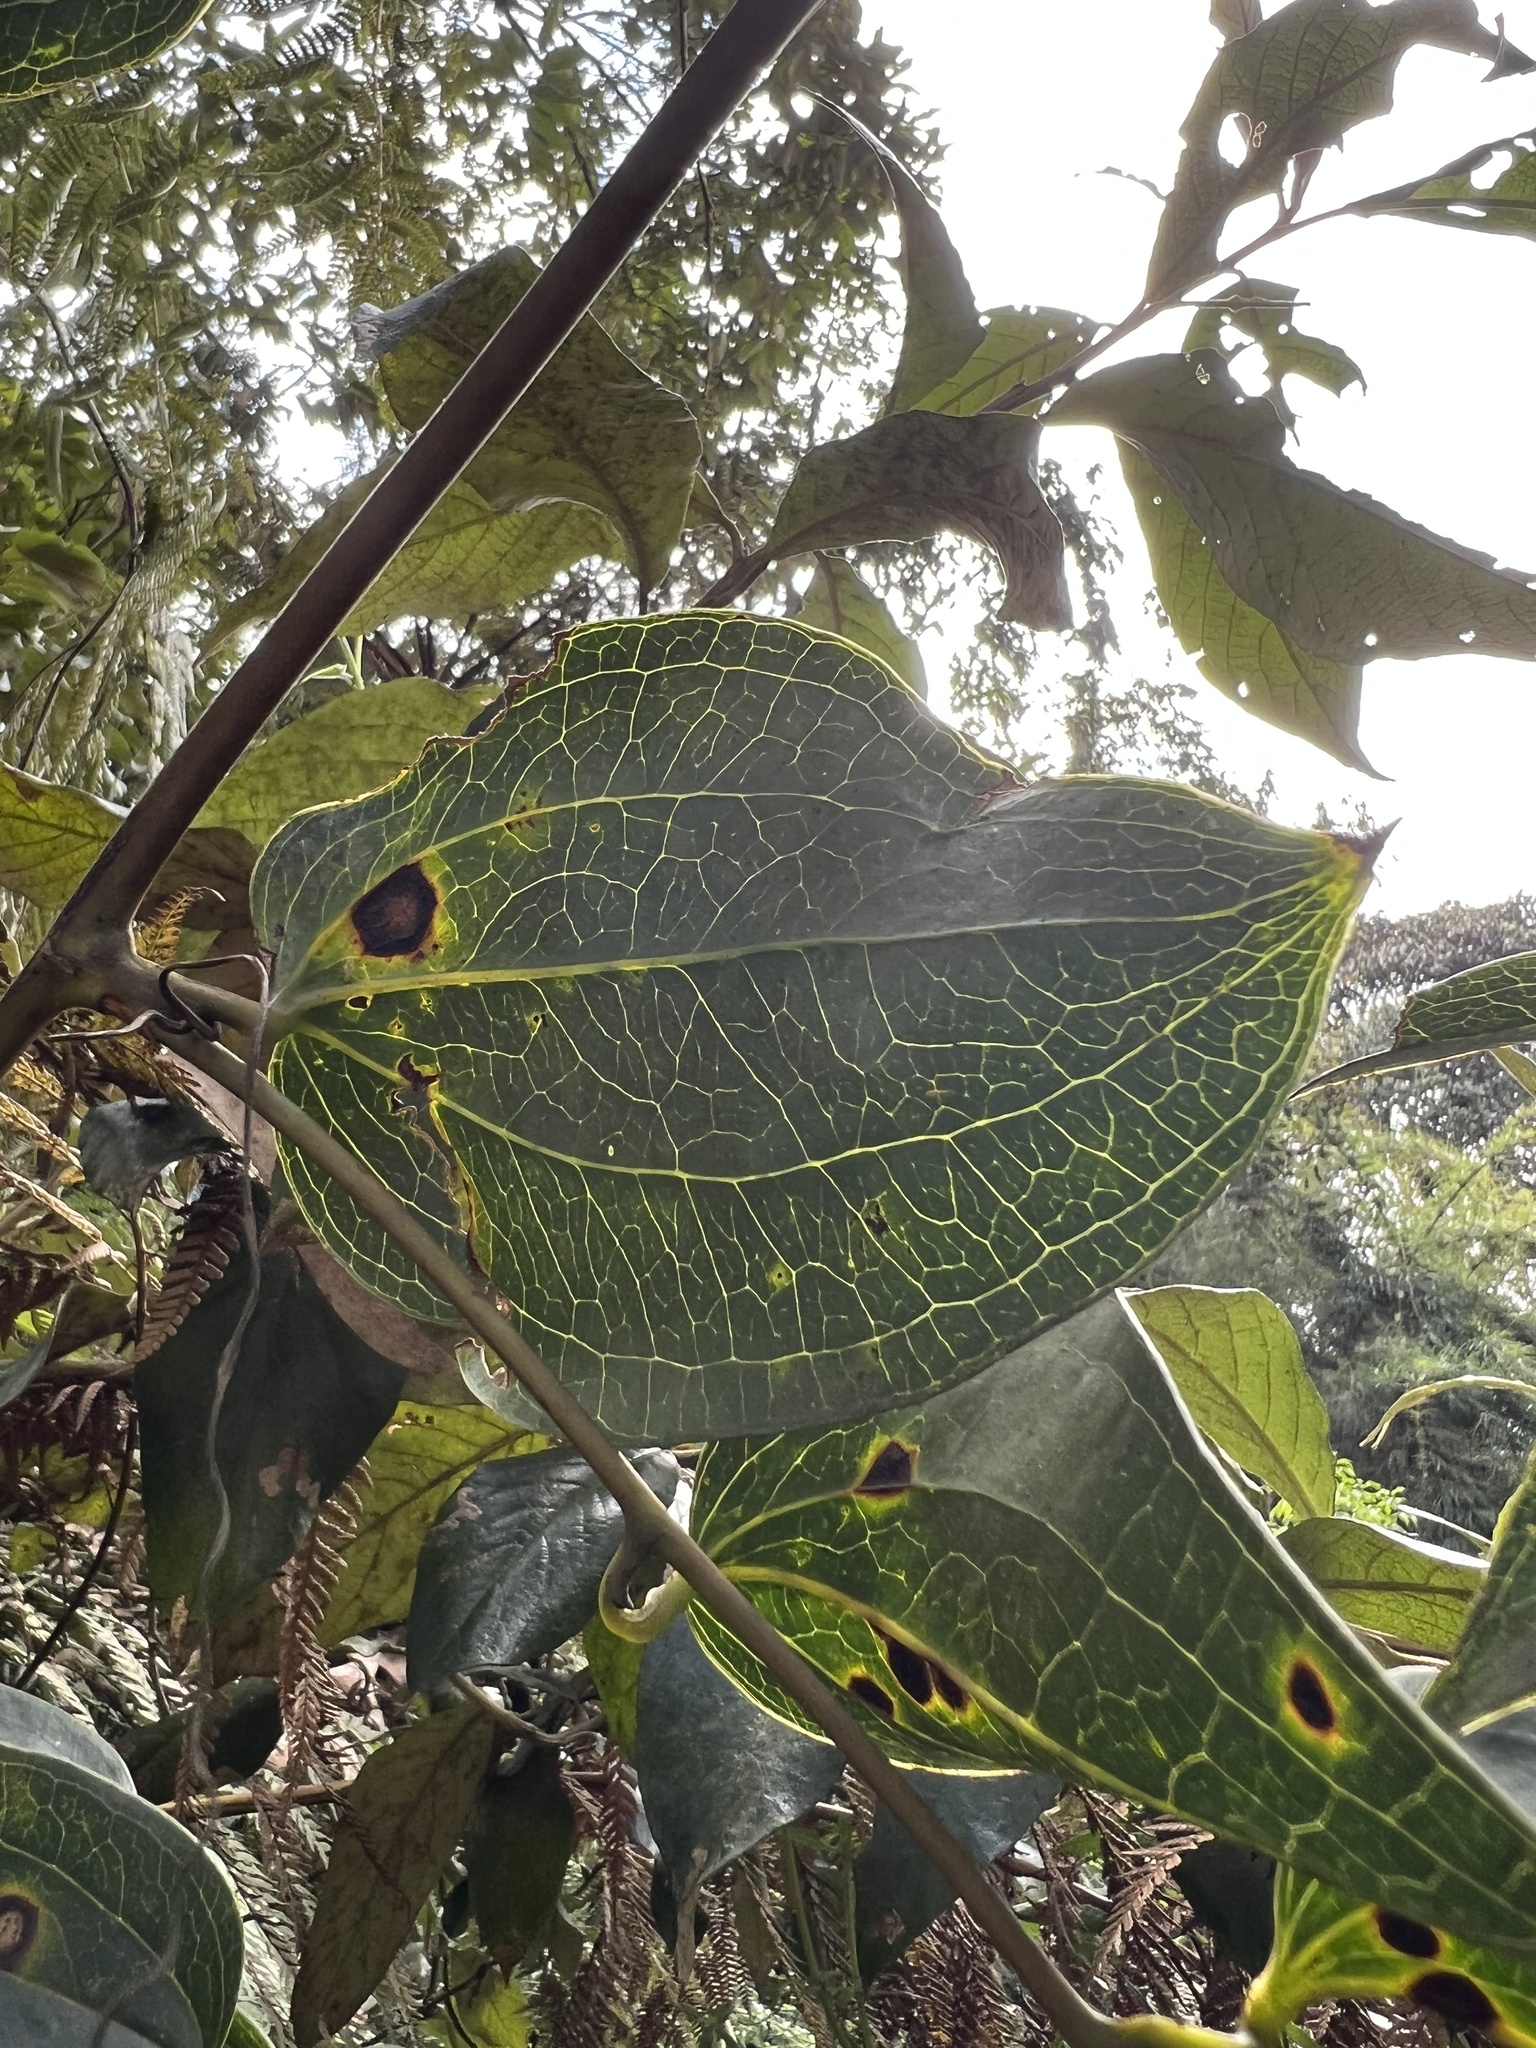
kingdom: Plantae
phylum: Tracheophyta
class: Liliopsida
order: Liliales
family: Smilacaceae
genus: Smilax
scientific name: Smilax domingensis
